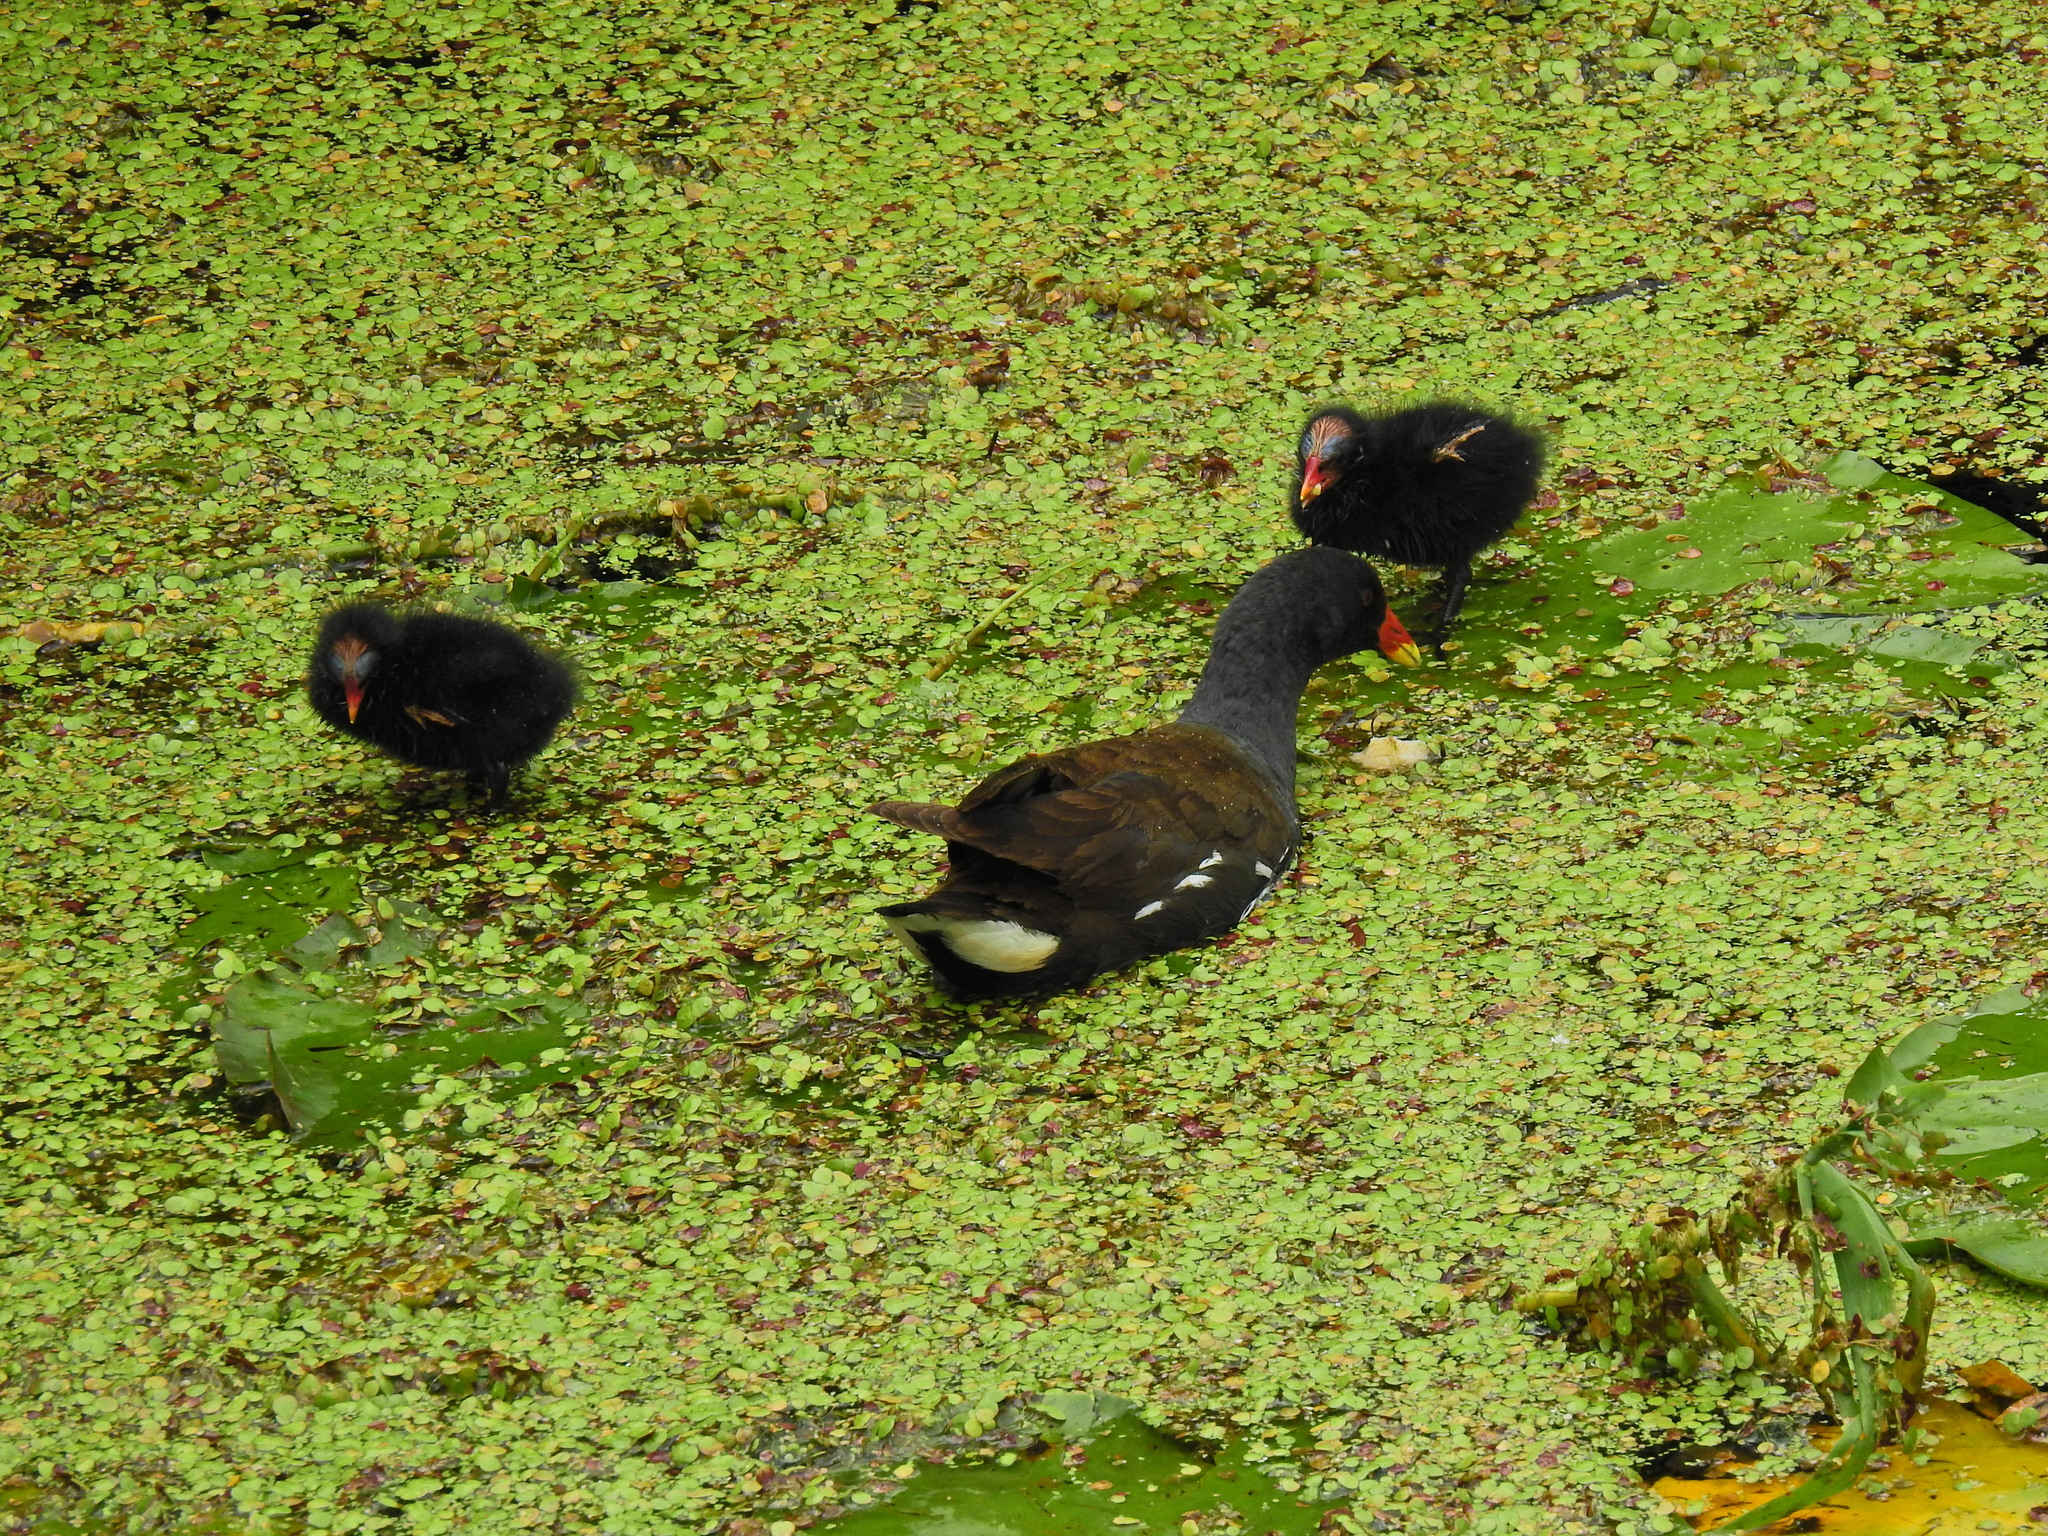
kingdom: Animalia
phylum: Chordata
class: Aves
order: Gruiformes
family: Rallidae
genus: Gallinula
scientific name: Gallinula chloropus
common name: Common moorhen
